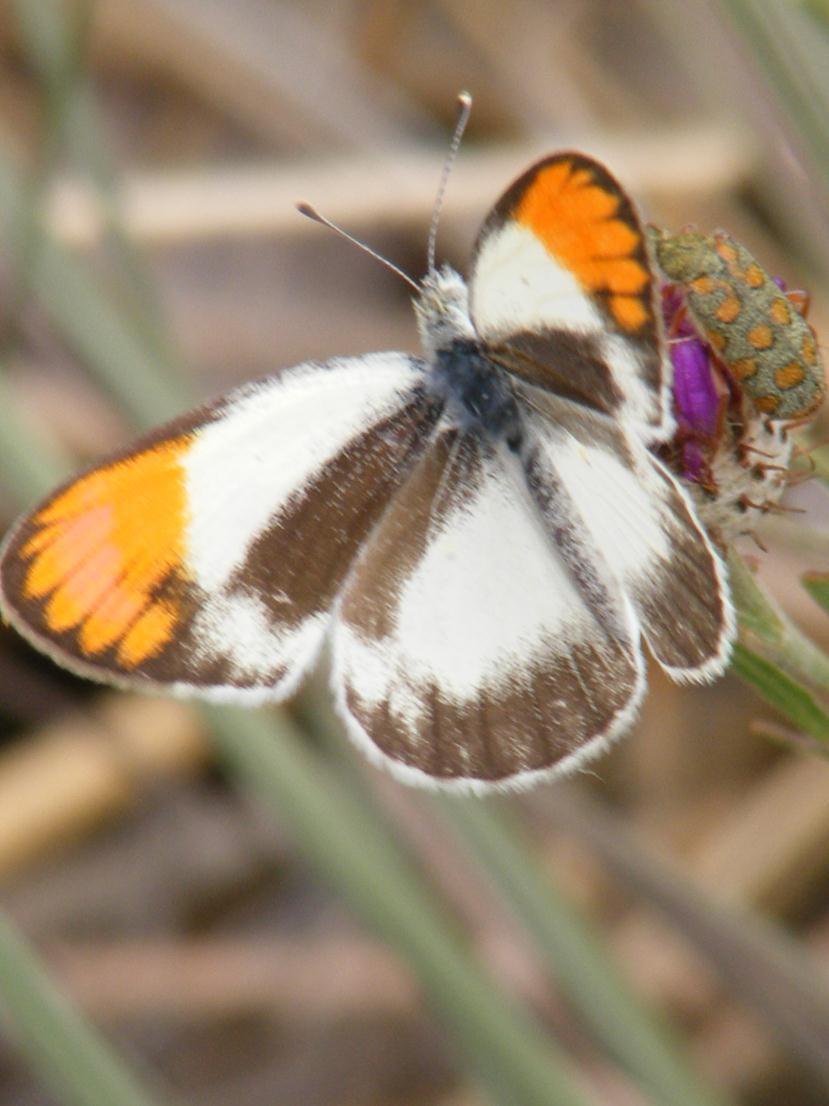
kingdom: Animalia
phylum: Arthropoda
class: Insecta
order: Lepidoptera
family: Pieridae
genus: Colotis
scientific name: Colotis evagore
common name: Desert orange-tip
